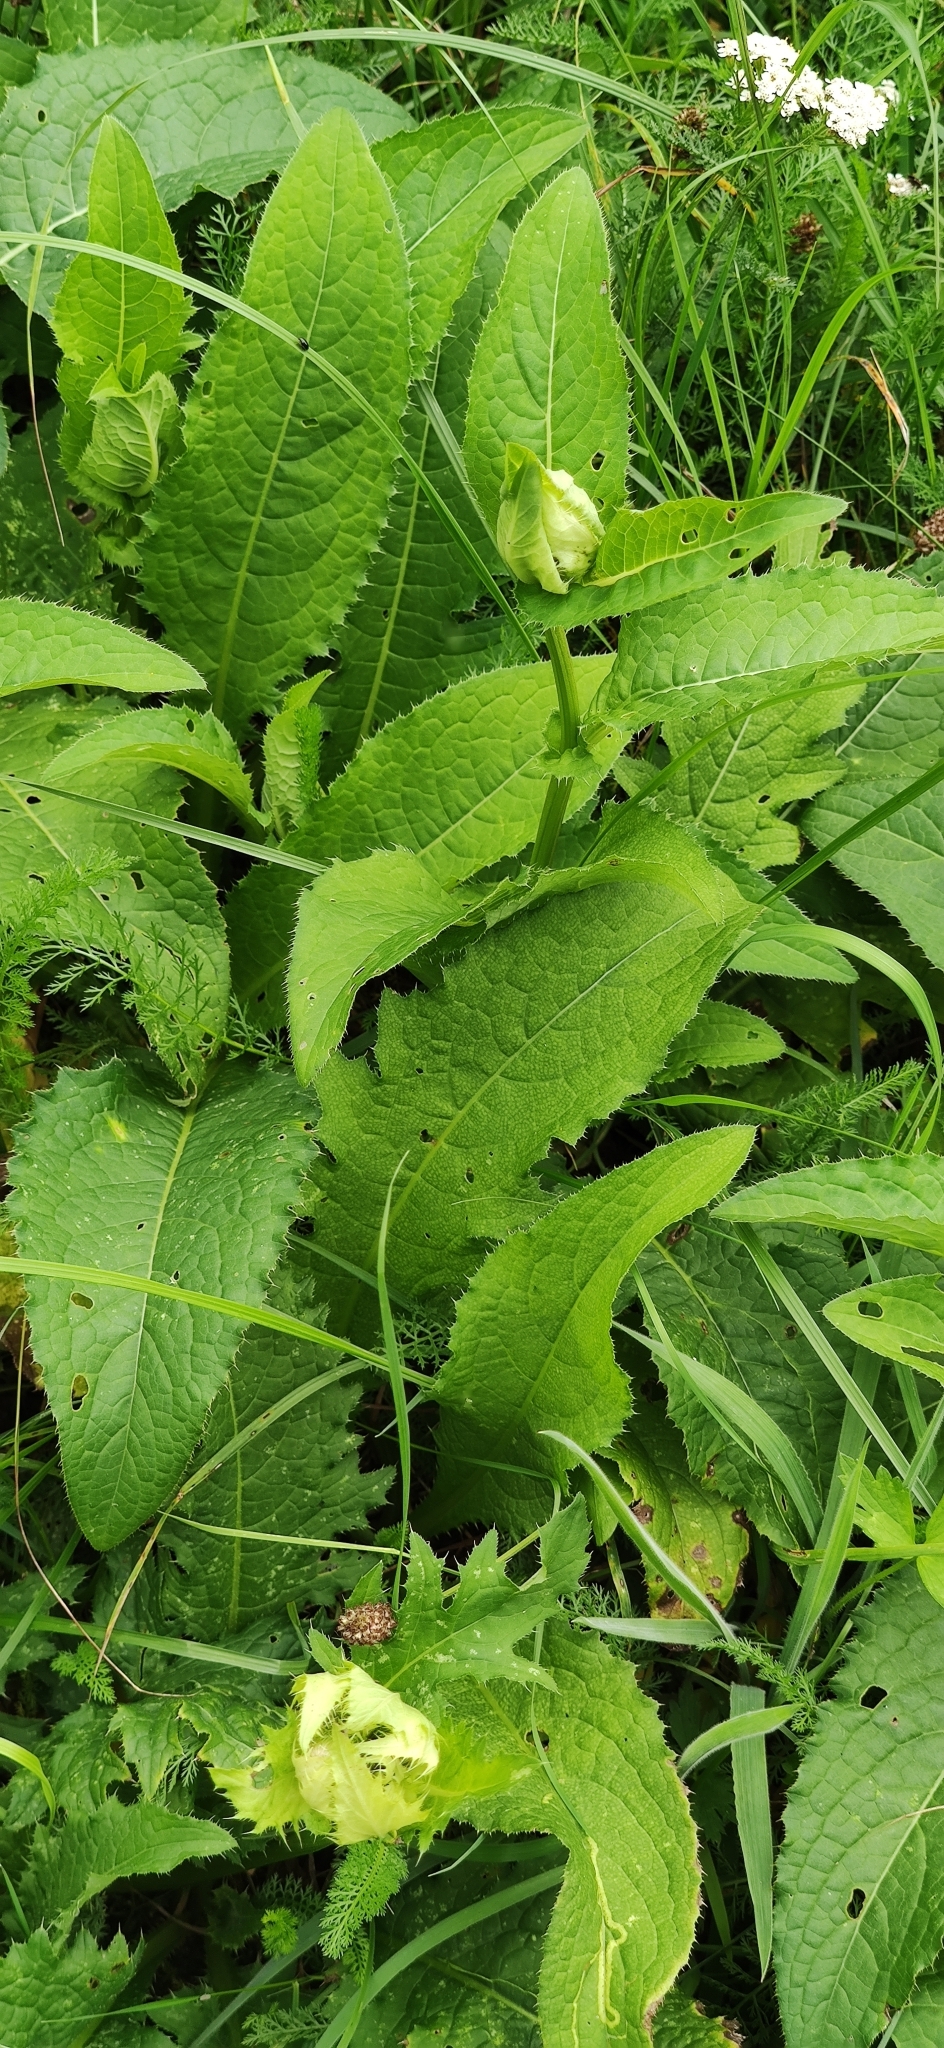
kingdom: Plantae
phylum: Tracheophyta
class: Magnoliopsida
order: Asterales
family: Asteraceae
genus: Cirsium
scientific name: Cirsium oleraceum
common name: Cabbage thistle
